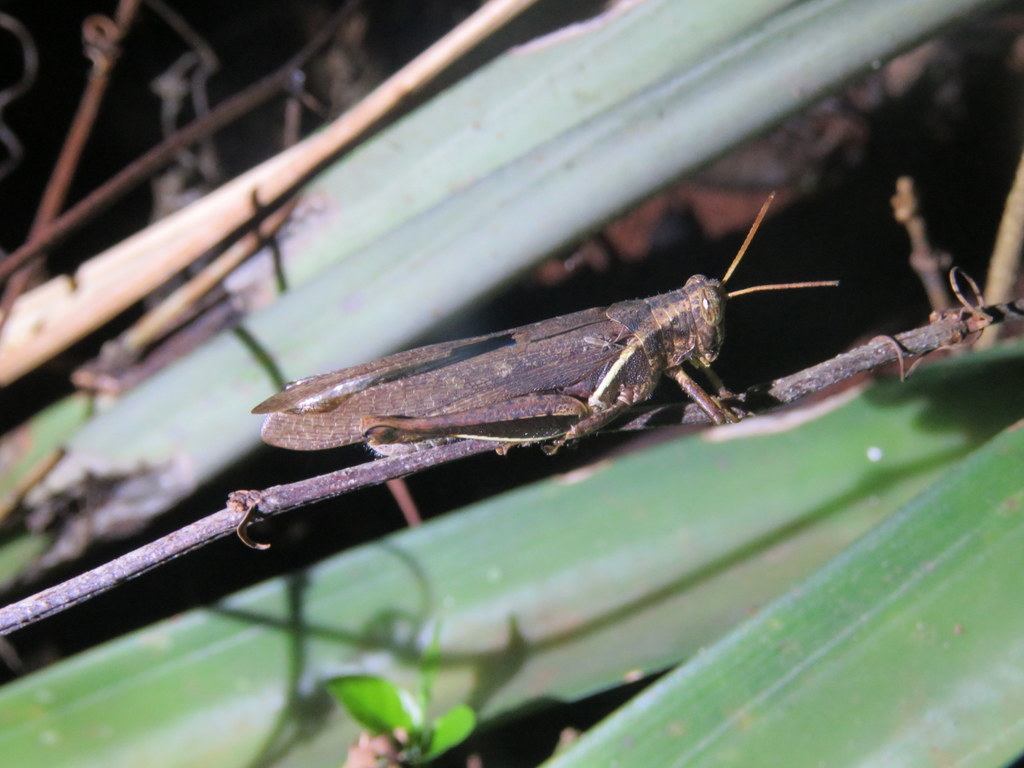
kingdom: Animalia
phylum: Arthropoda
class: Insecta
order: Orthoptera
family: Acrididae
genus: Abracris
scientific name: Abracris flavolineata
